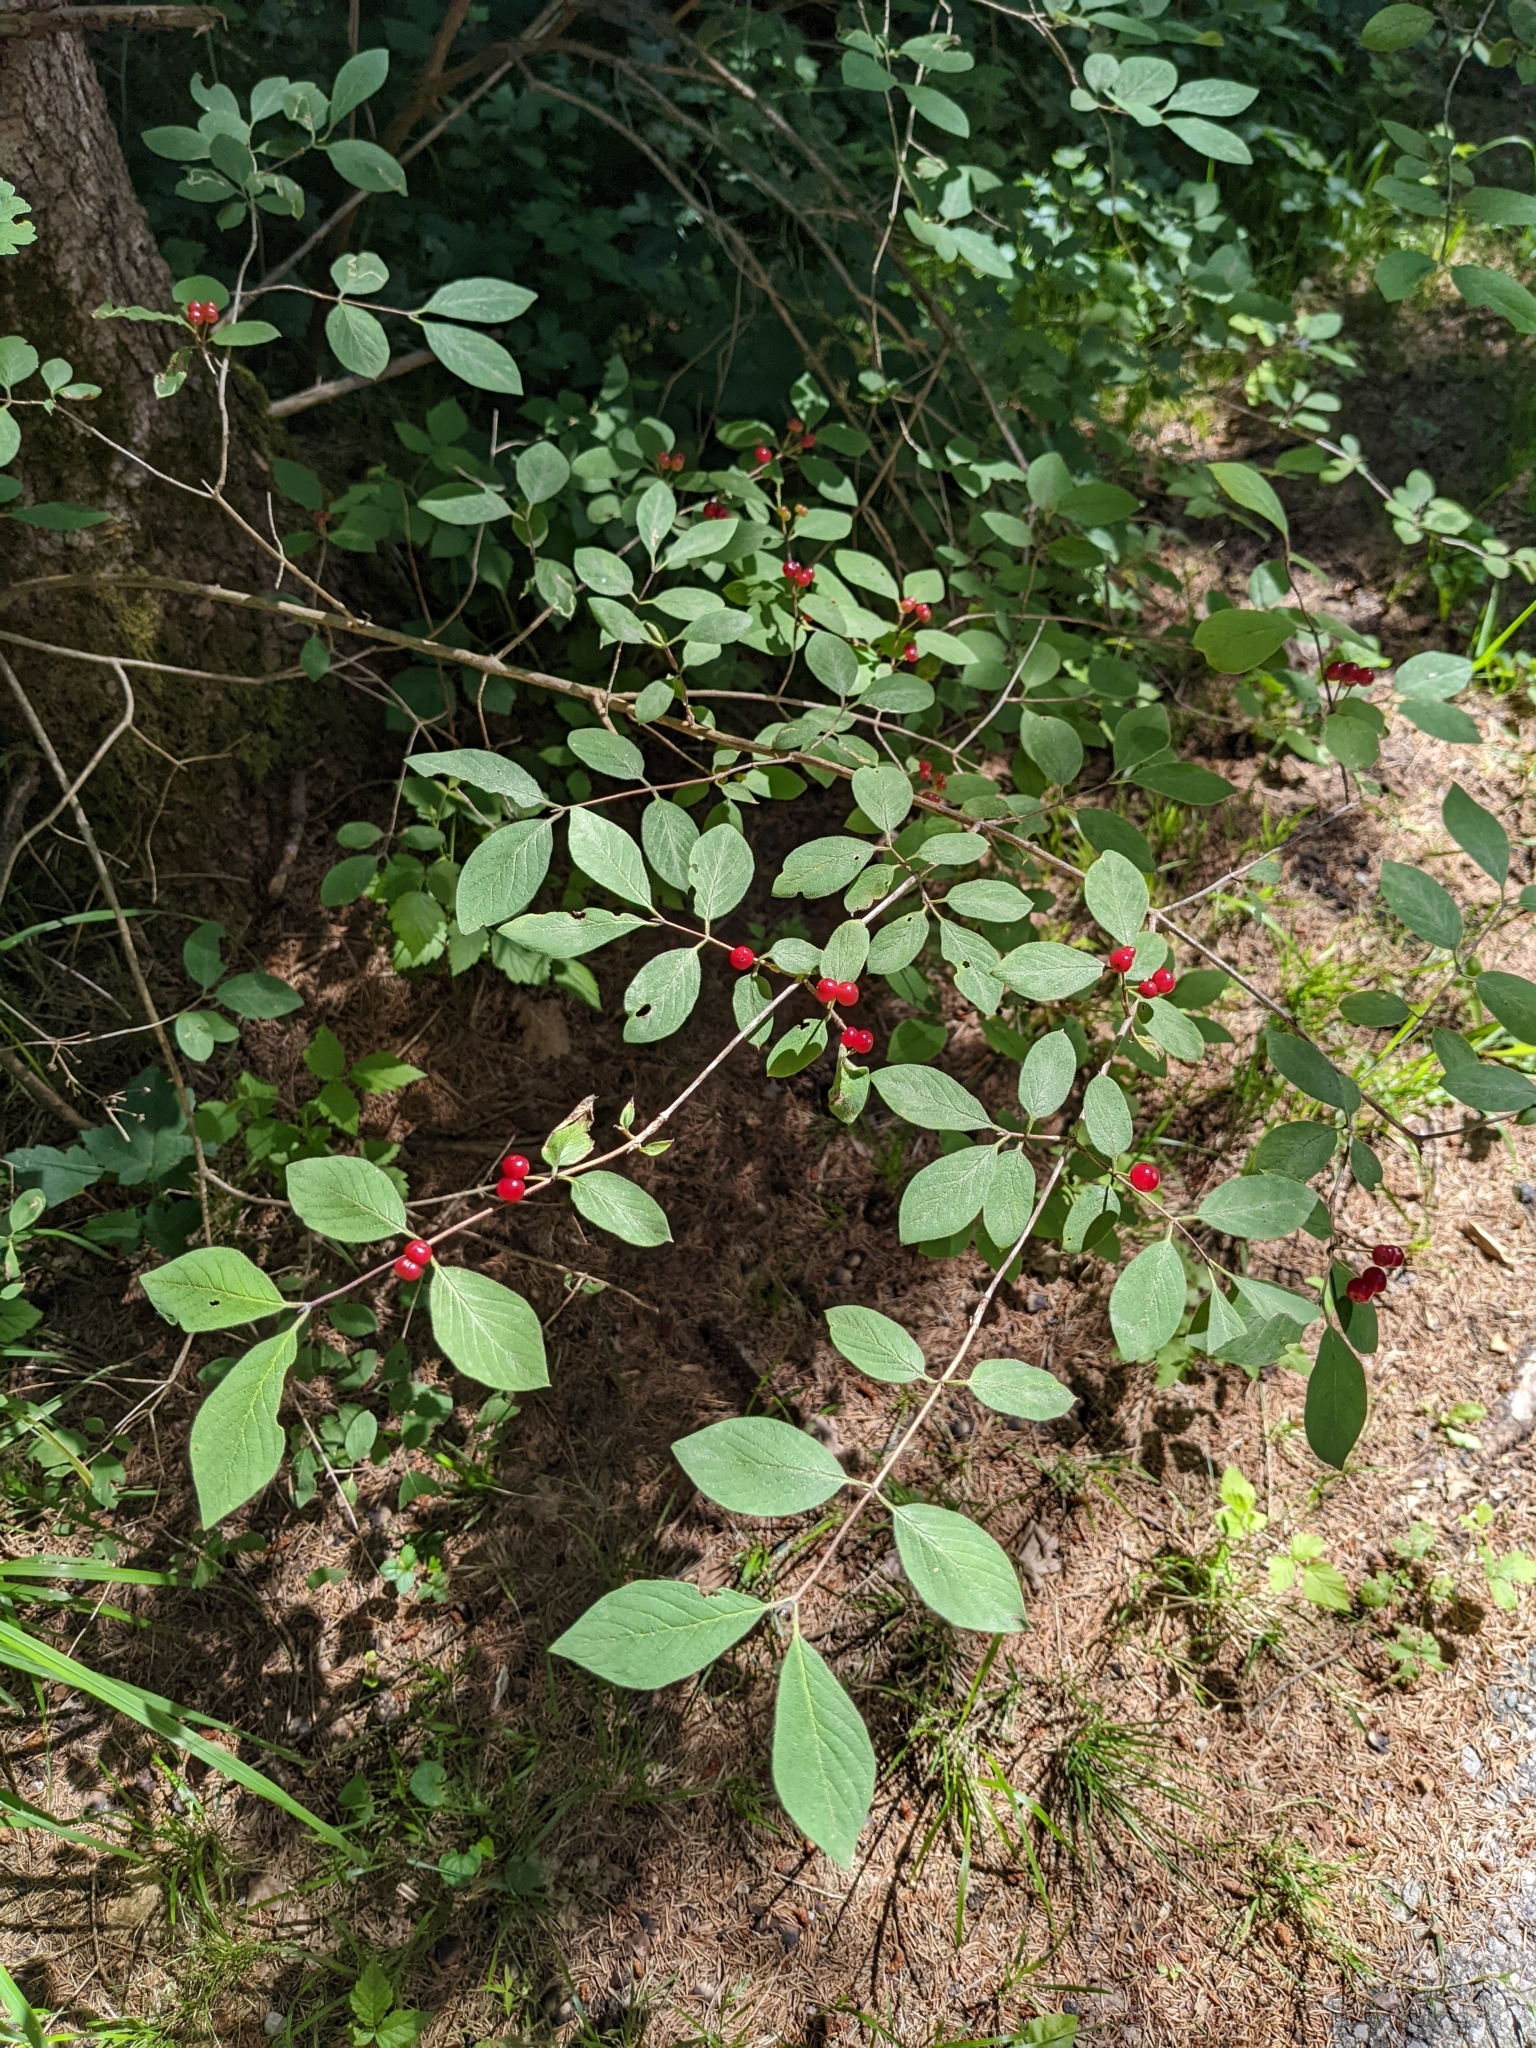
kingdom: Plantae
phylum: Tracheophyta
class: Magnoliopsida
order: Dipsacales
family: Caprifoliaceae
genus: Lonicera
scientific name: Lonicera xylosteum
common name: Fly honeysuckle
